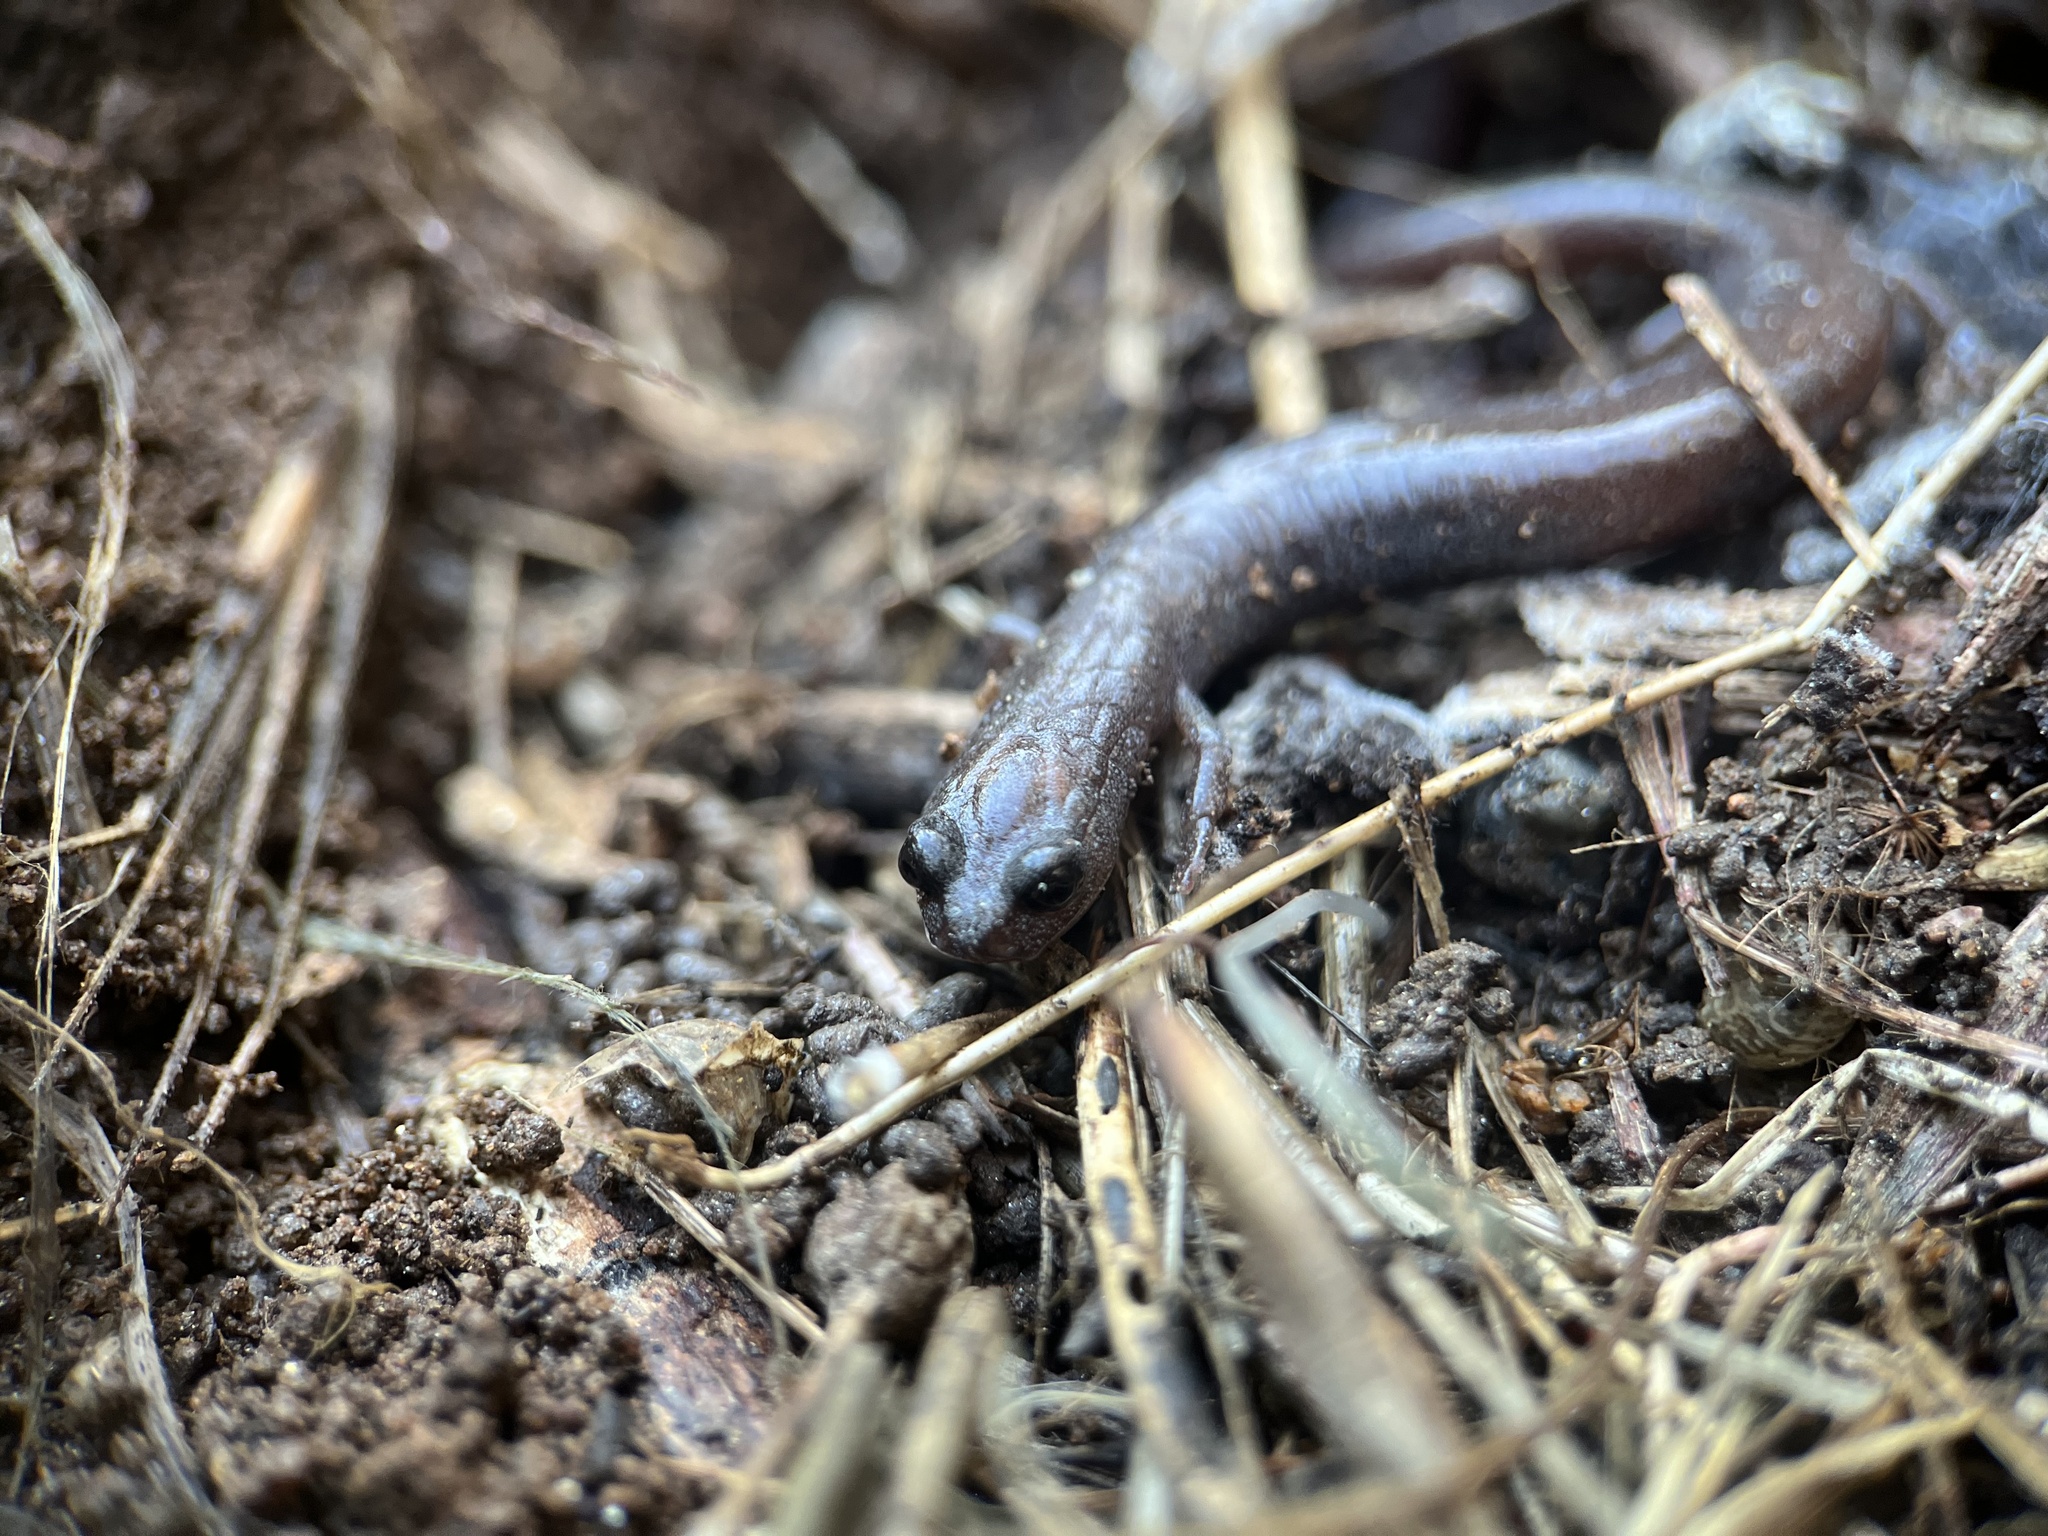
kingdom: Animalia
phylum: Chordata
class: Amphibia
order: Caudata
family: Plethodontidae
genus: Batrachoseps
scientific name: Batrachoseps major
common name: Garden slender salamander
